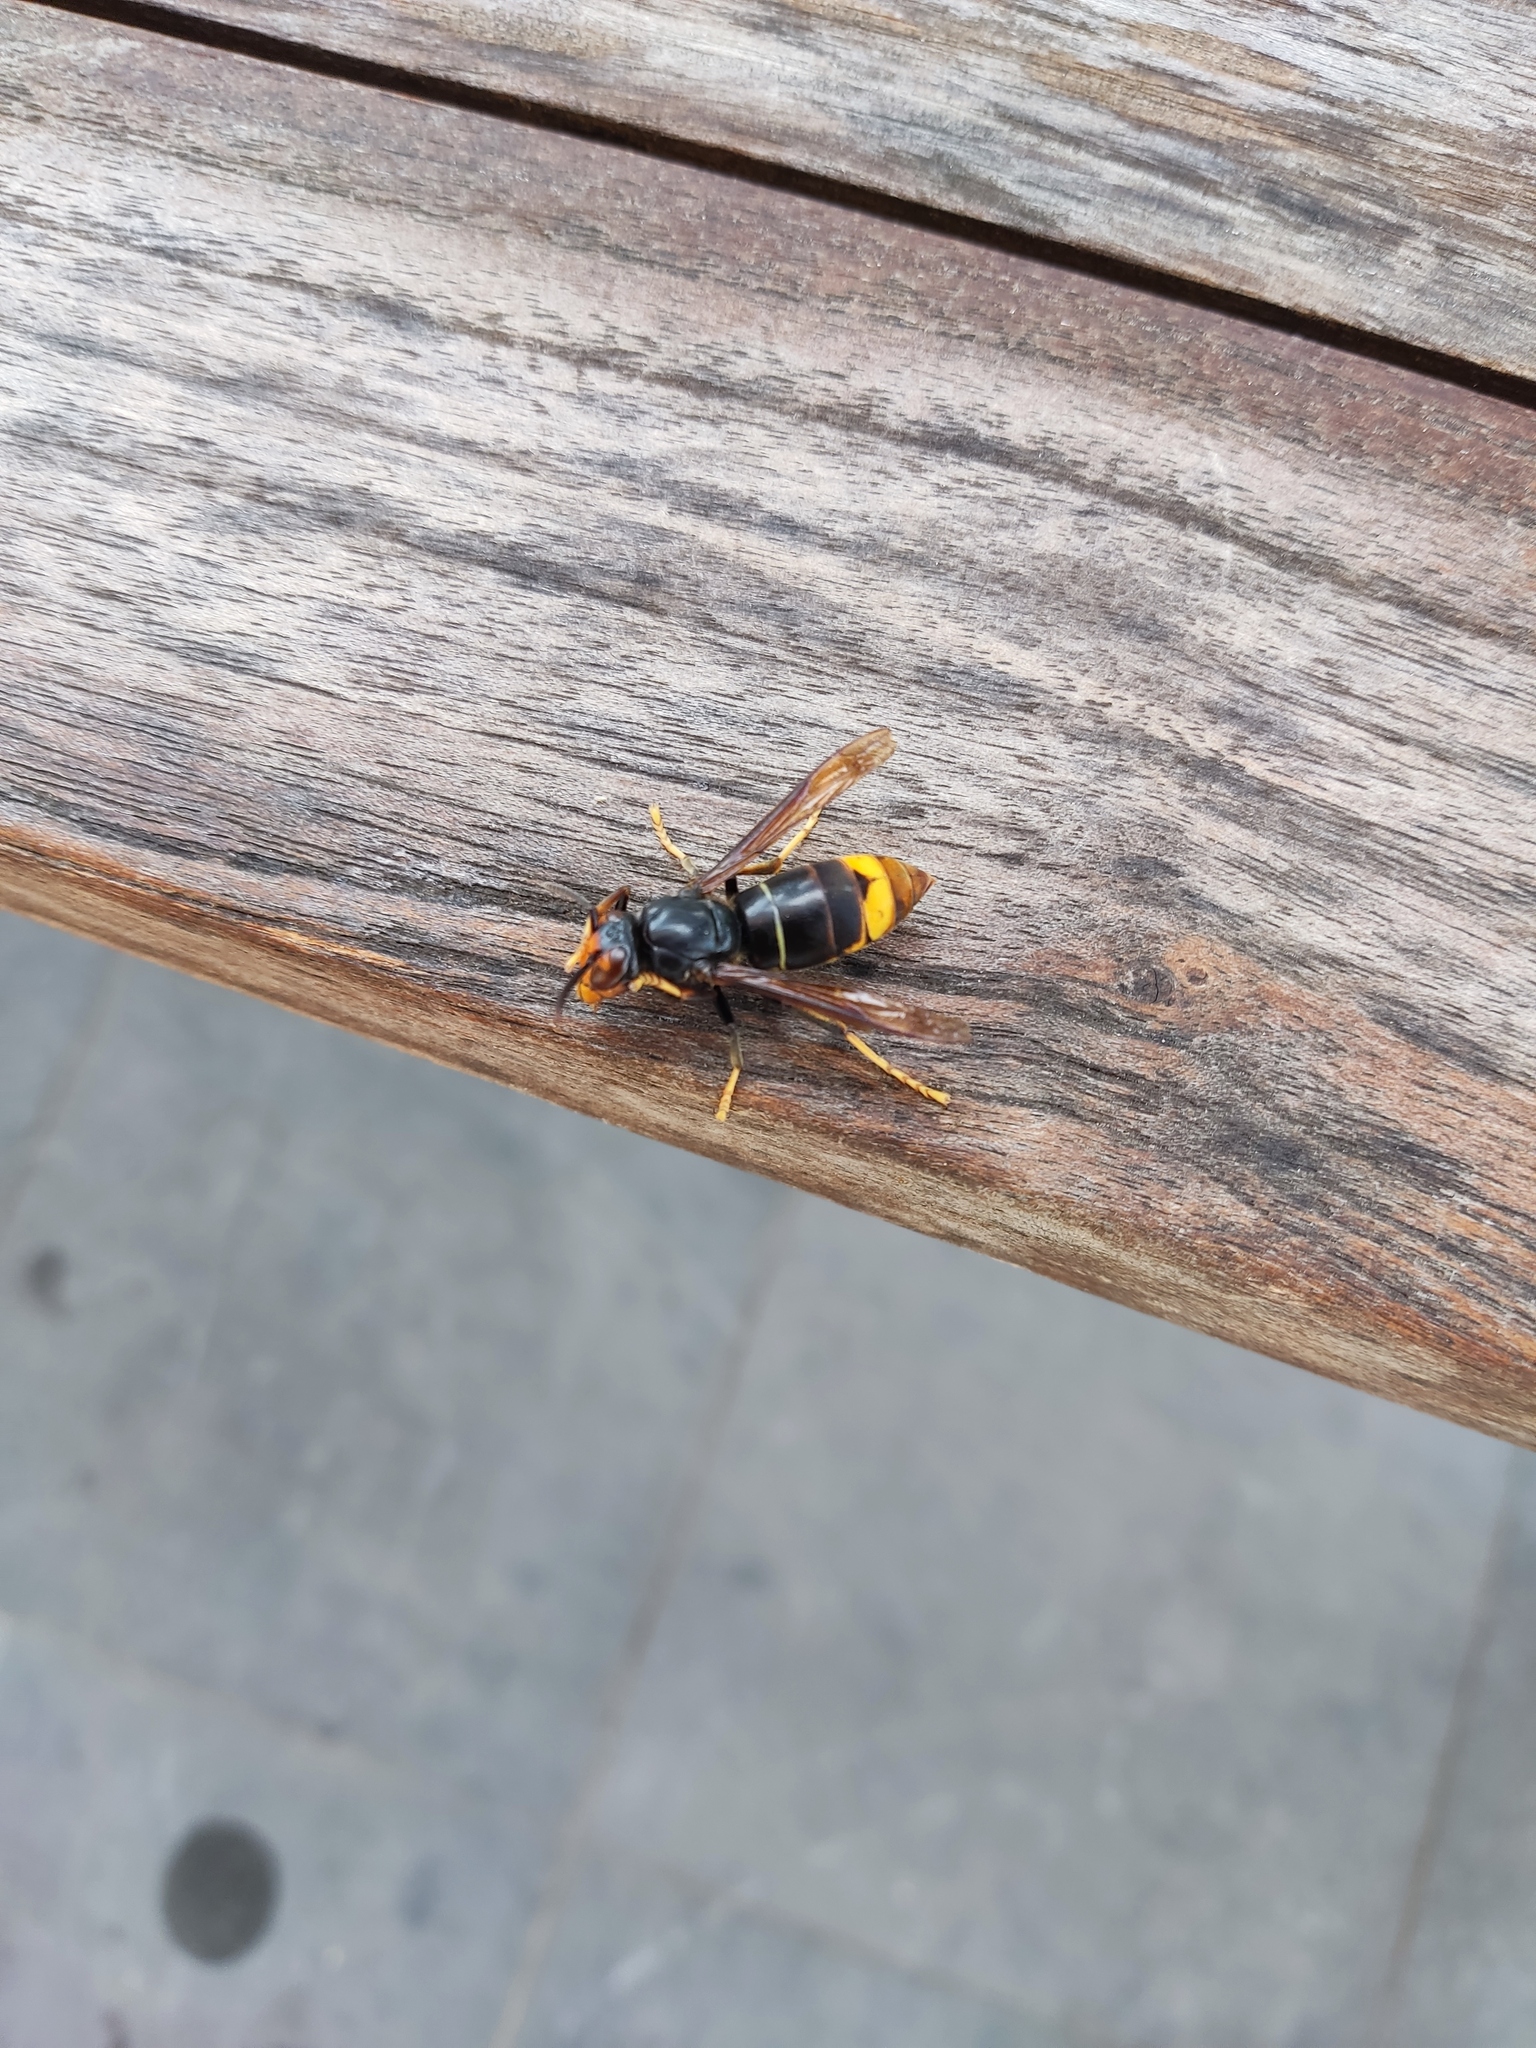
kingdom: Animalia
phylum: Arthropoda
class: Insecta
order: Hymenoptera
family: Vespidae
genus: Vespa
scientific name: Vespa velutina
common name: Asian hornet
